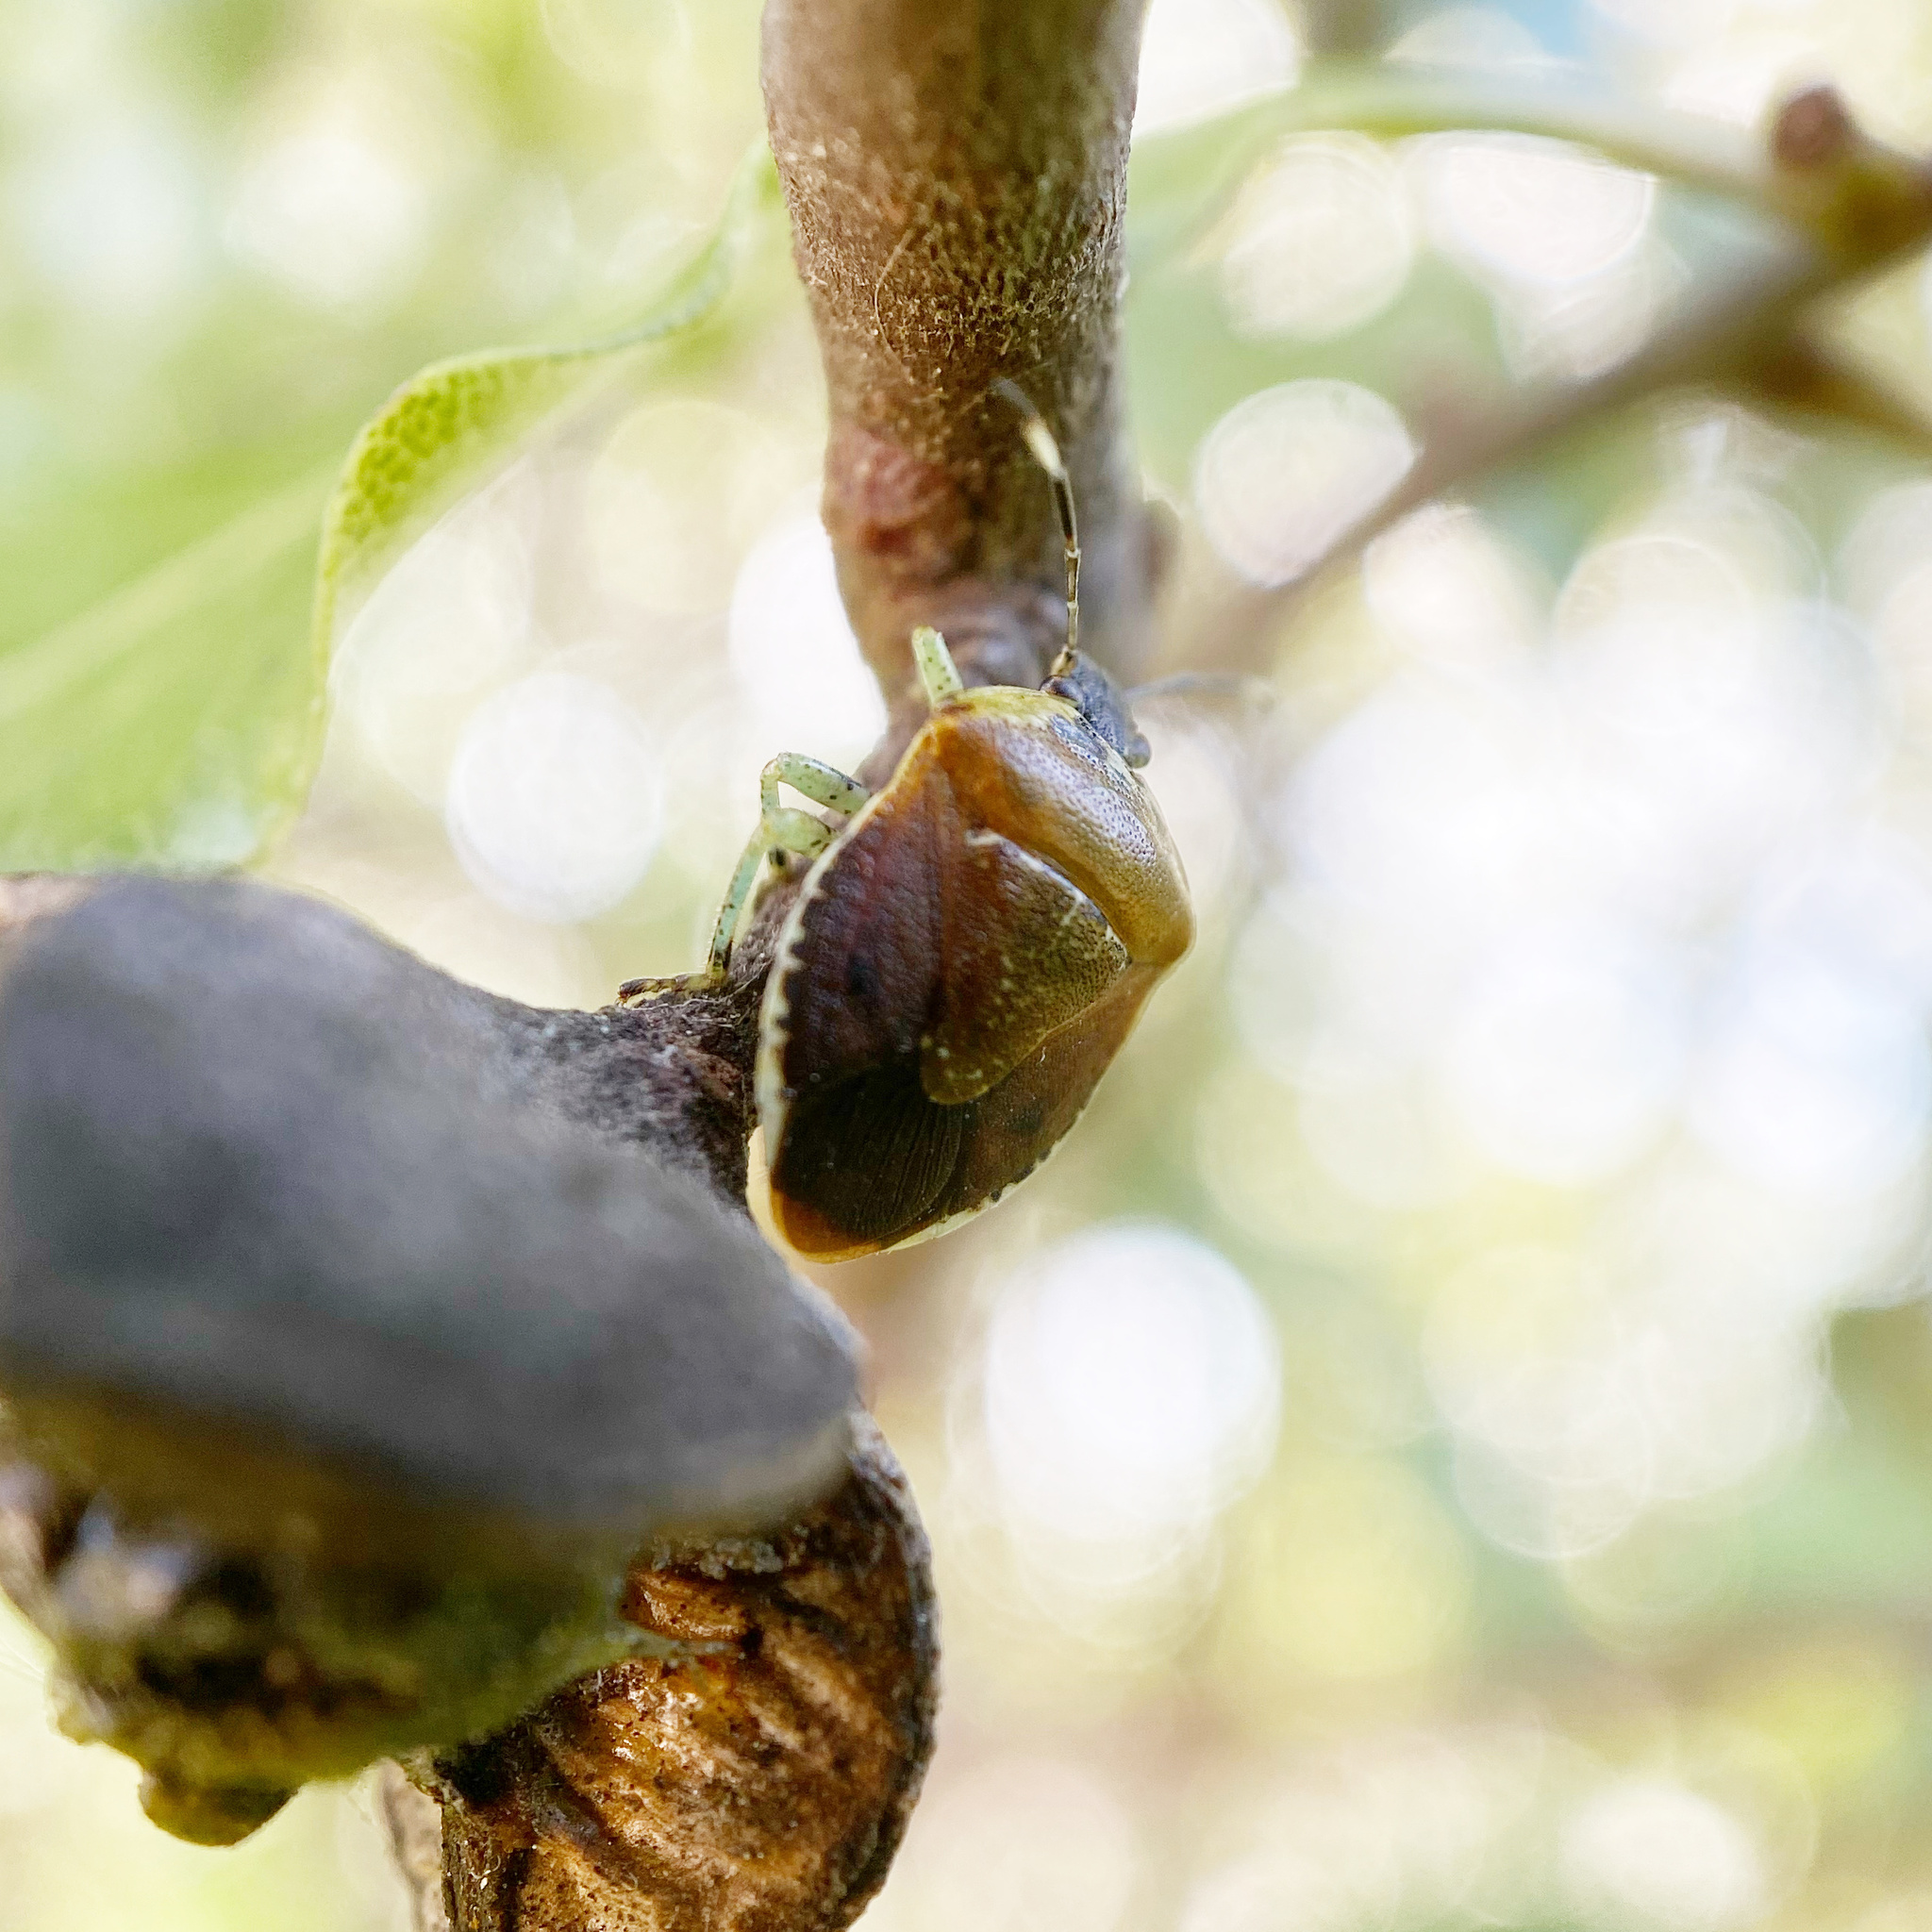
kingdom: Animalia
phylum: Arthropoda
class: Insecta
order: Hemiptera
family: Pentatomidae
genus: Monteithiella
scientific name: Monteithiella
